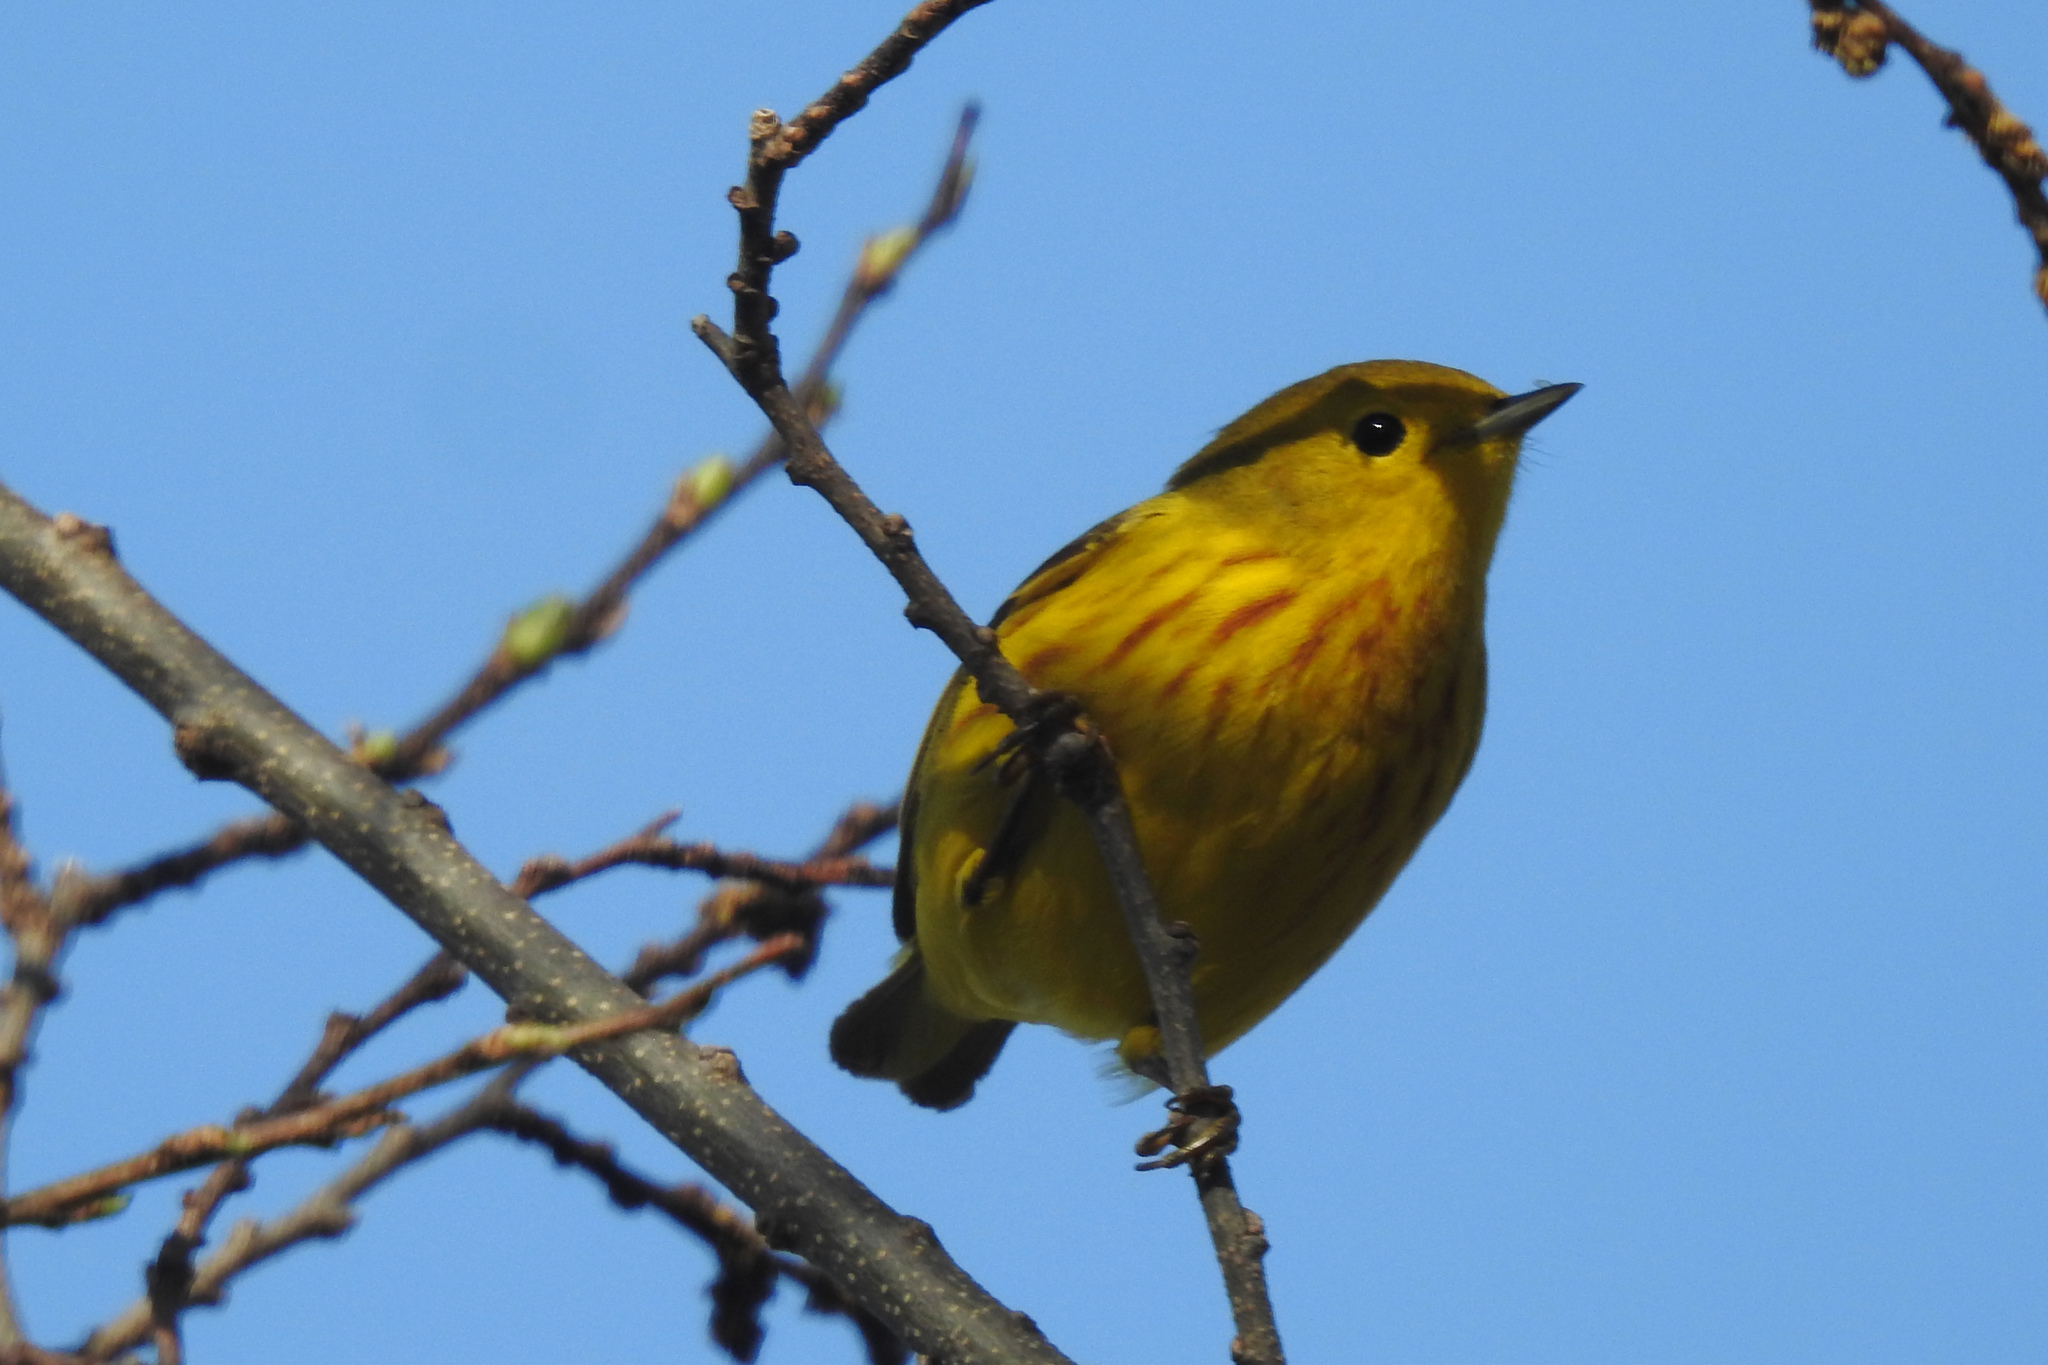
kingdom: Animalia
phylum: Chordata
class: Aves
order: Passeriformes
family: Parulidae
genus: Setophaga
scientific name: Setophaga petechia
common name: Yellow warbler
